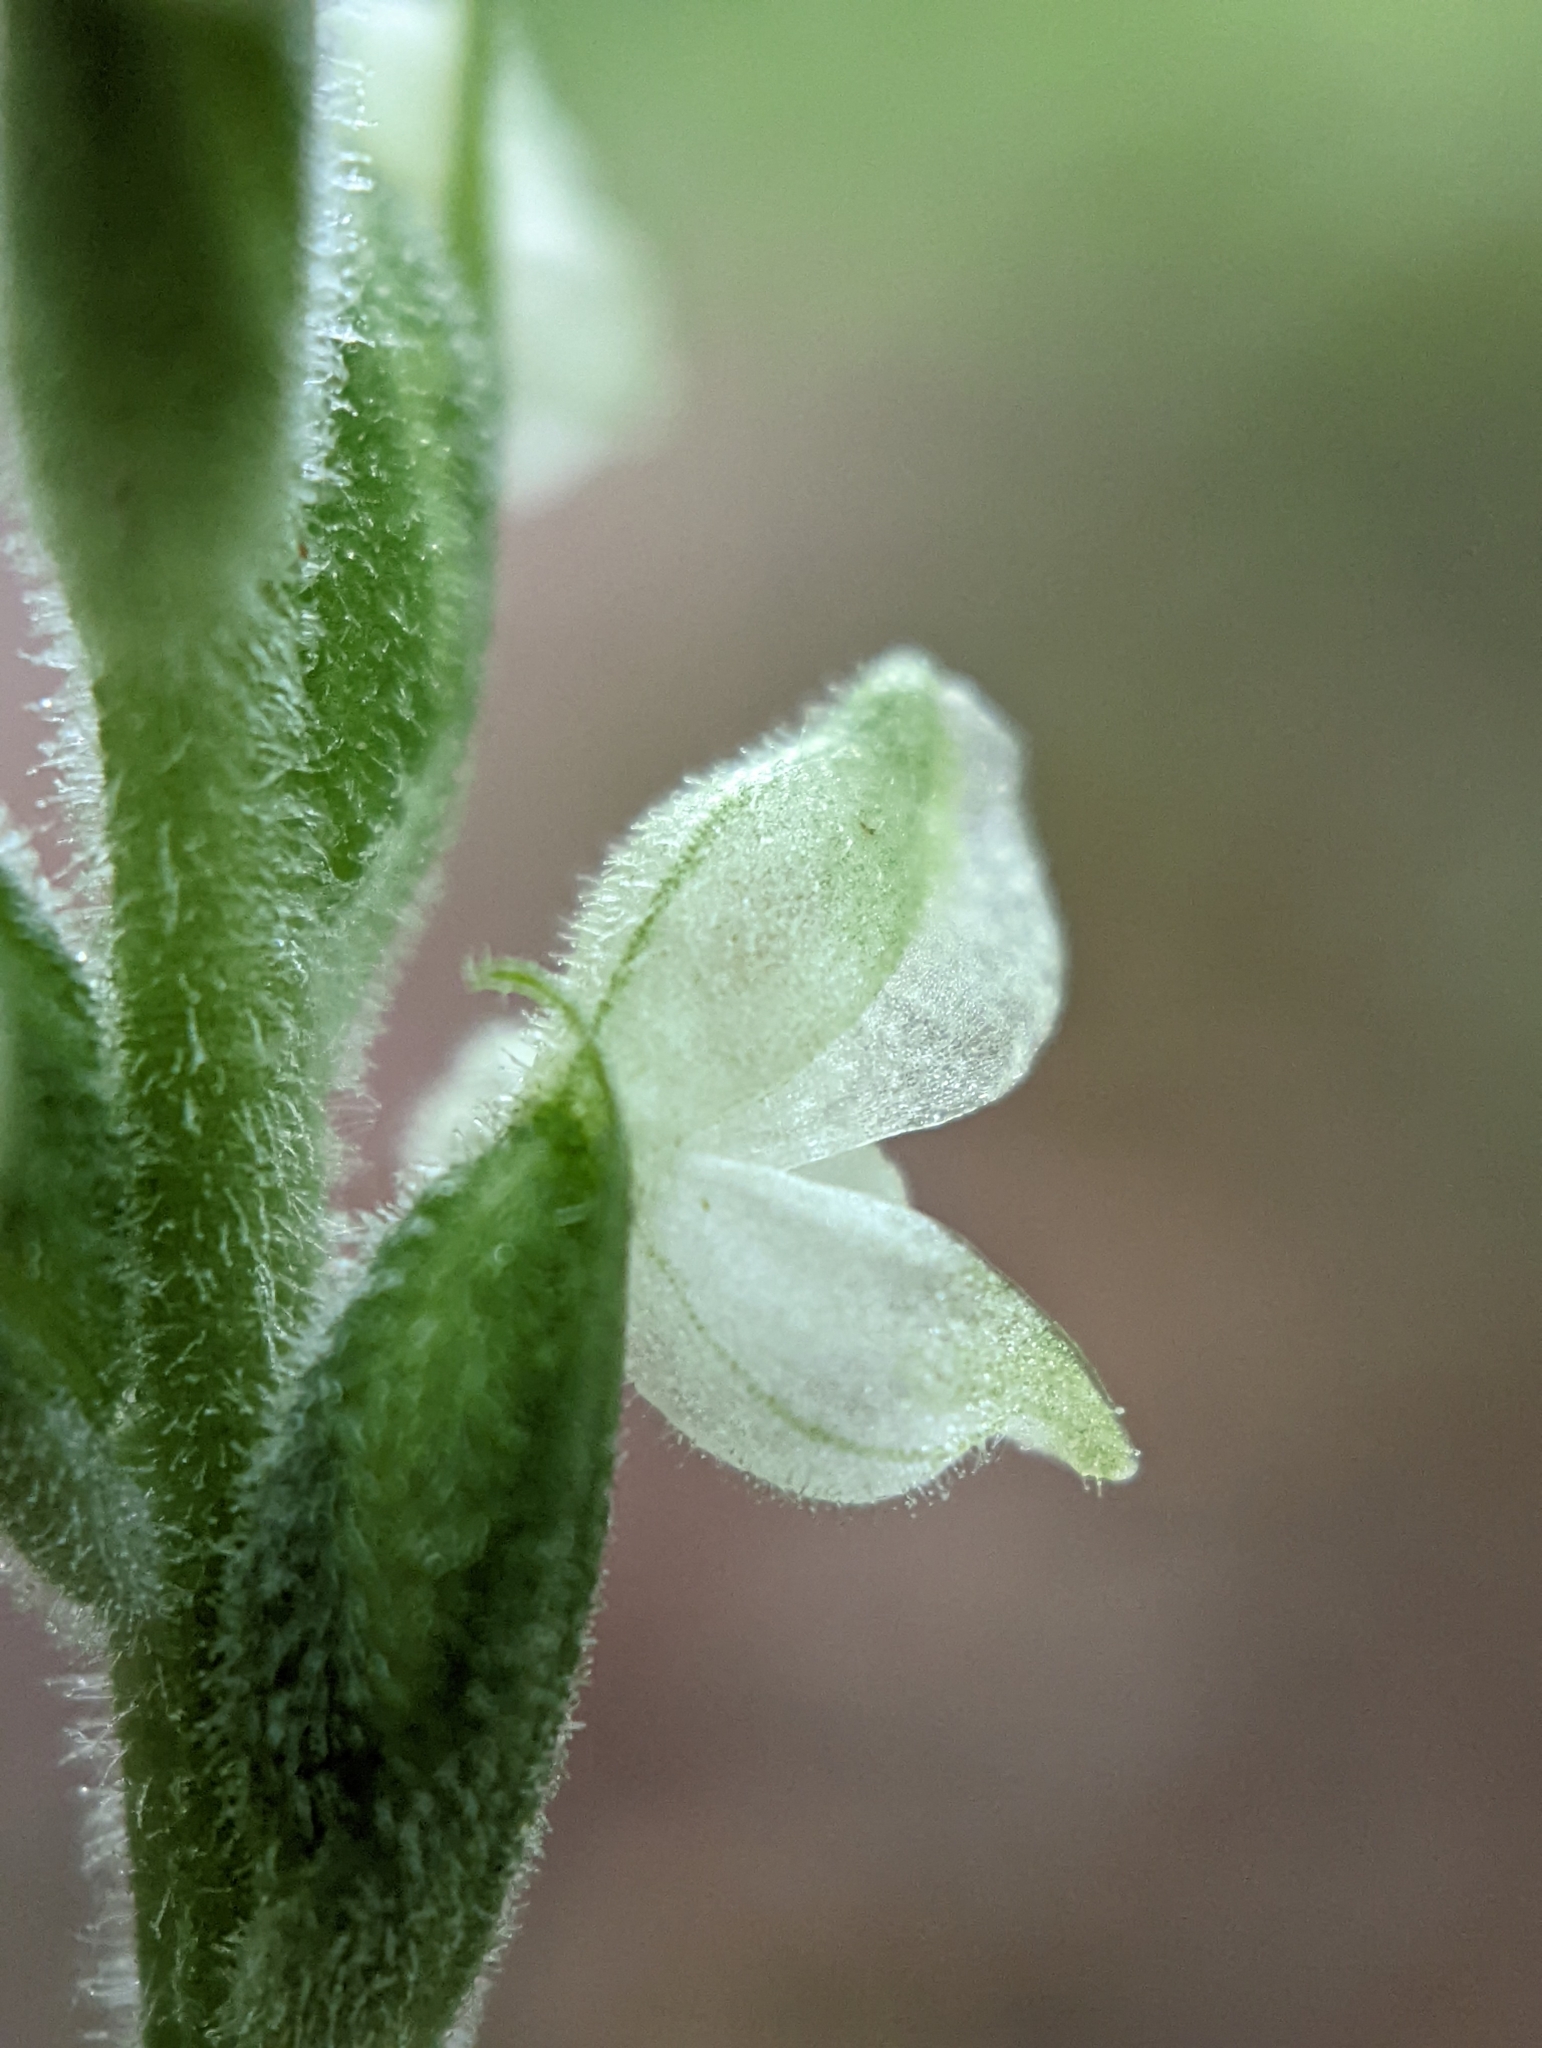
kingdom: Plantae
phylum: Tracheophyta
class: Liliopsida
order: Asparagales
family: Orchidaceae
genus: Goodyera
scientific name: Goodyera pubescens
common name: Downy rattlesnake-plantain
